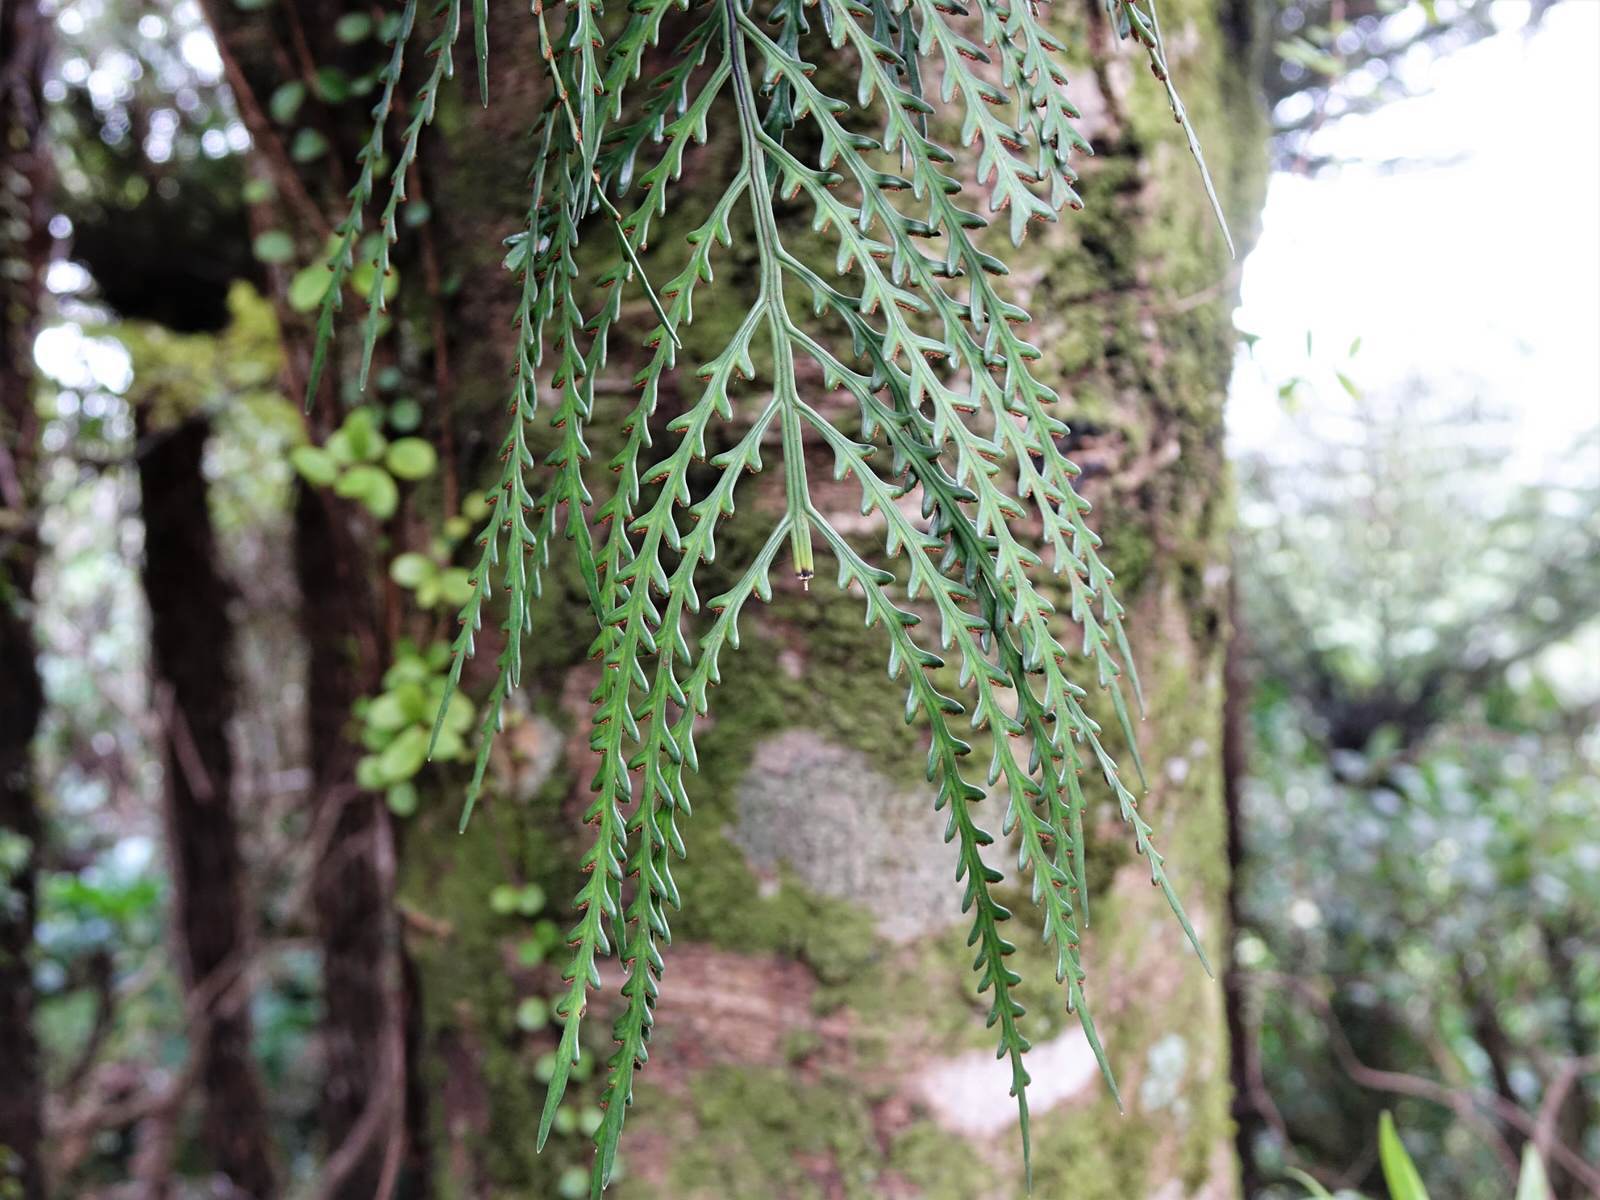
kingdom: Plantae
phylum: Tracheophyta
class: Polypodiopsida
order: Polypodiales
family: Aspleniaceae
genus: Asplenium
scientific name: Asplenium flaccidum
